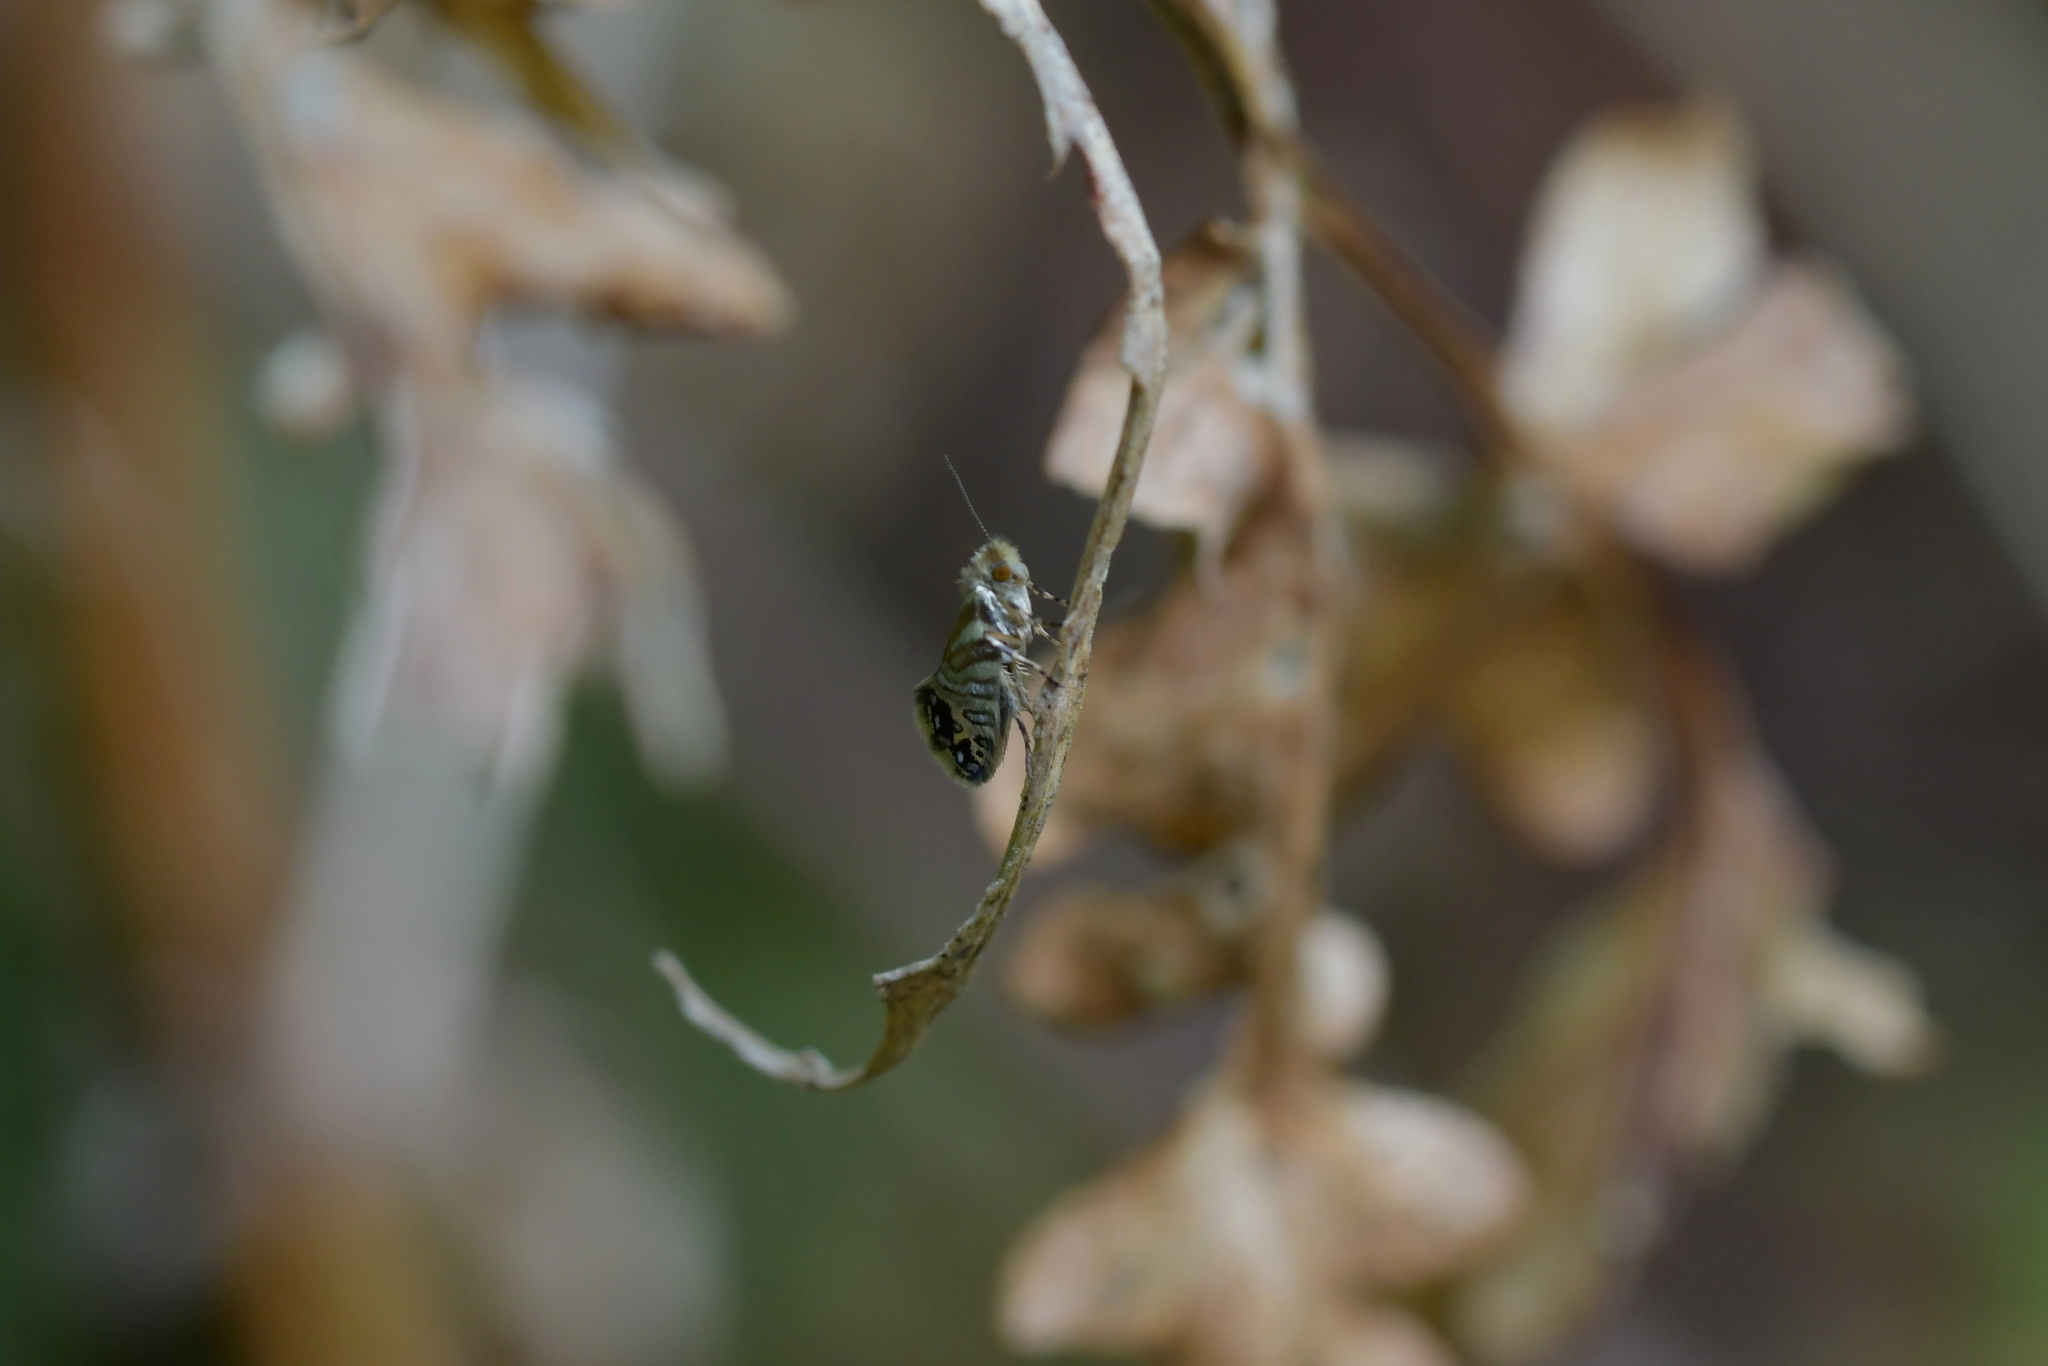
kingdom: Animalia
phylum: Arthropoda
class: Insecta
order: Lepidoptera
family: Micropterigidae
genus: Sabatinca
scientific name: Sabatinca doroxena
